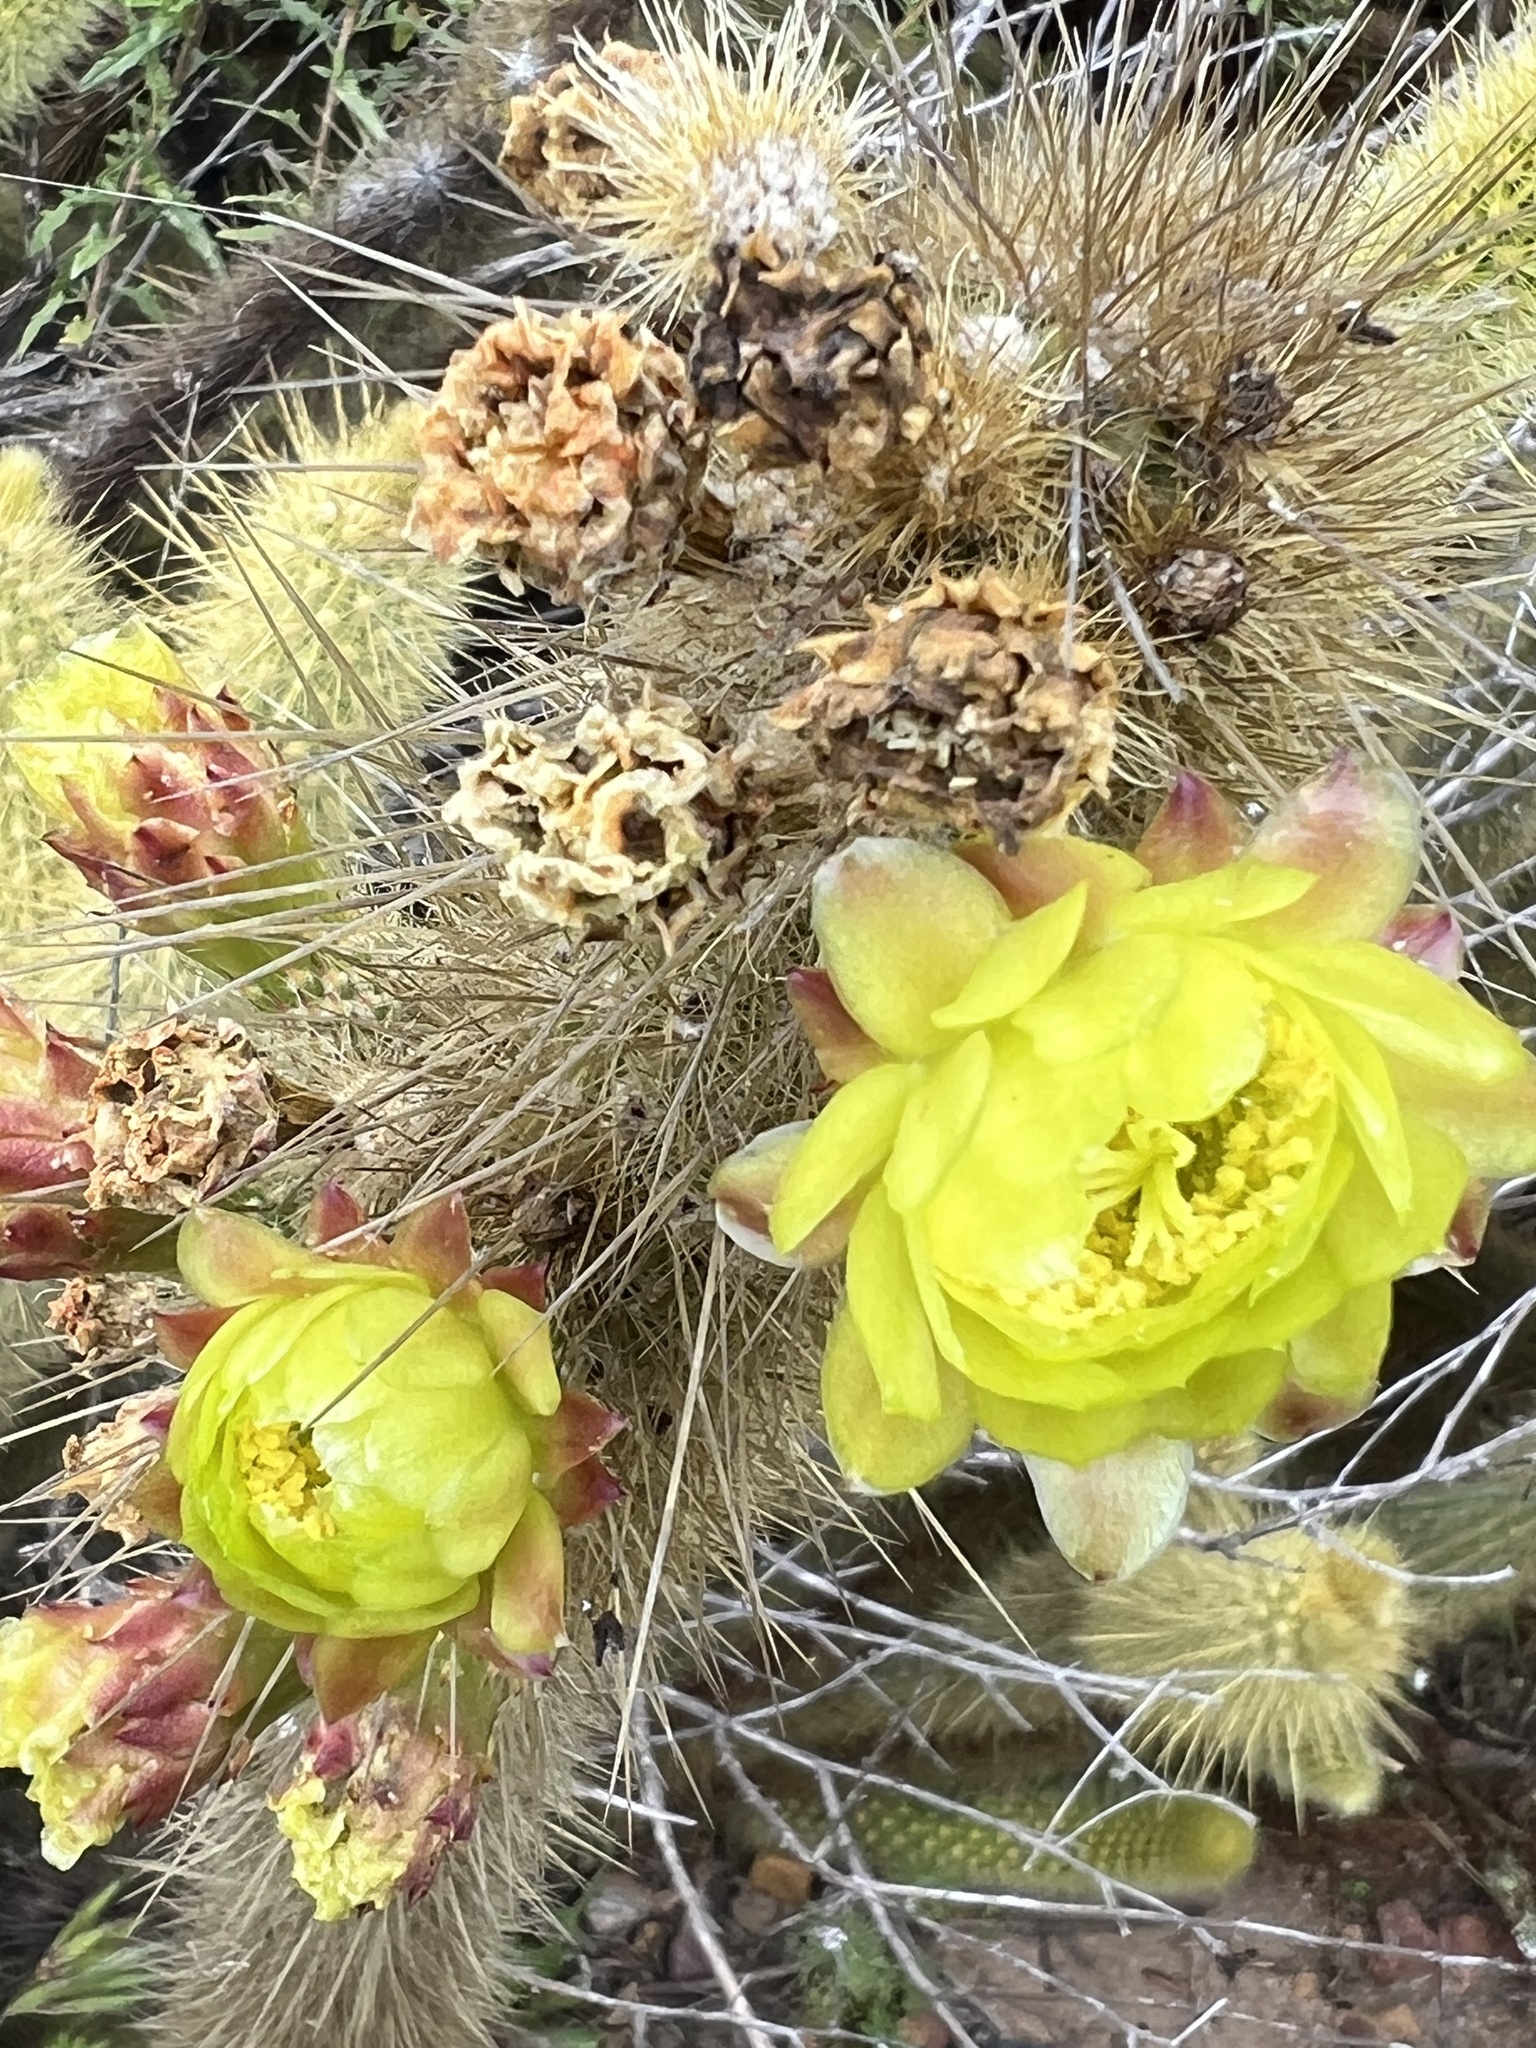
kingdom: Plantae
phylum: Tracheophyta
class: Magnoliopsida
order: Caryophyllales
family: Cactaceae
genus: Bergerocactus
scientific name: Bergerocactus emoryi
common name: Golden snakecactus
